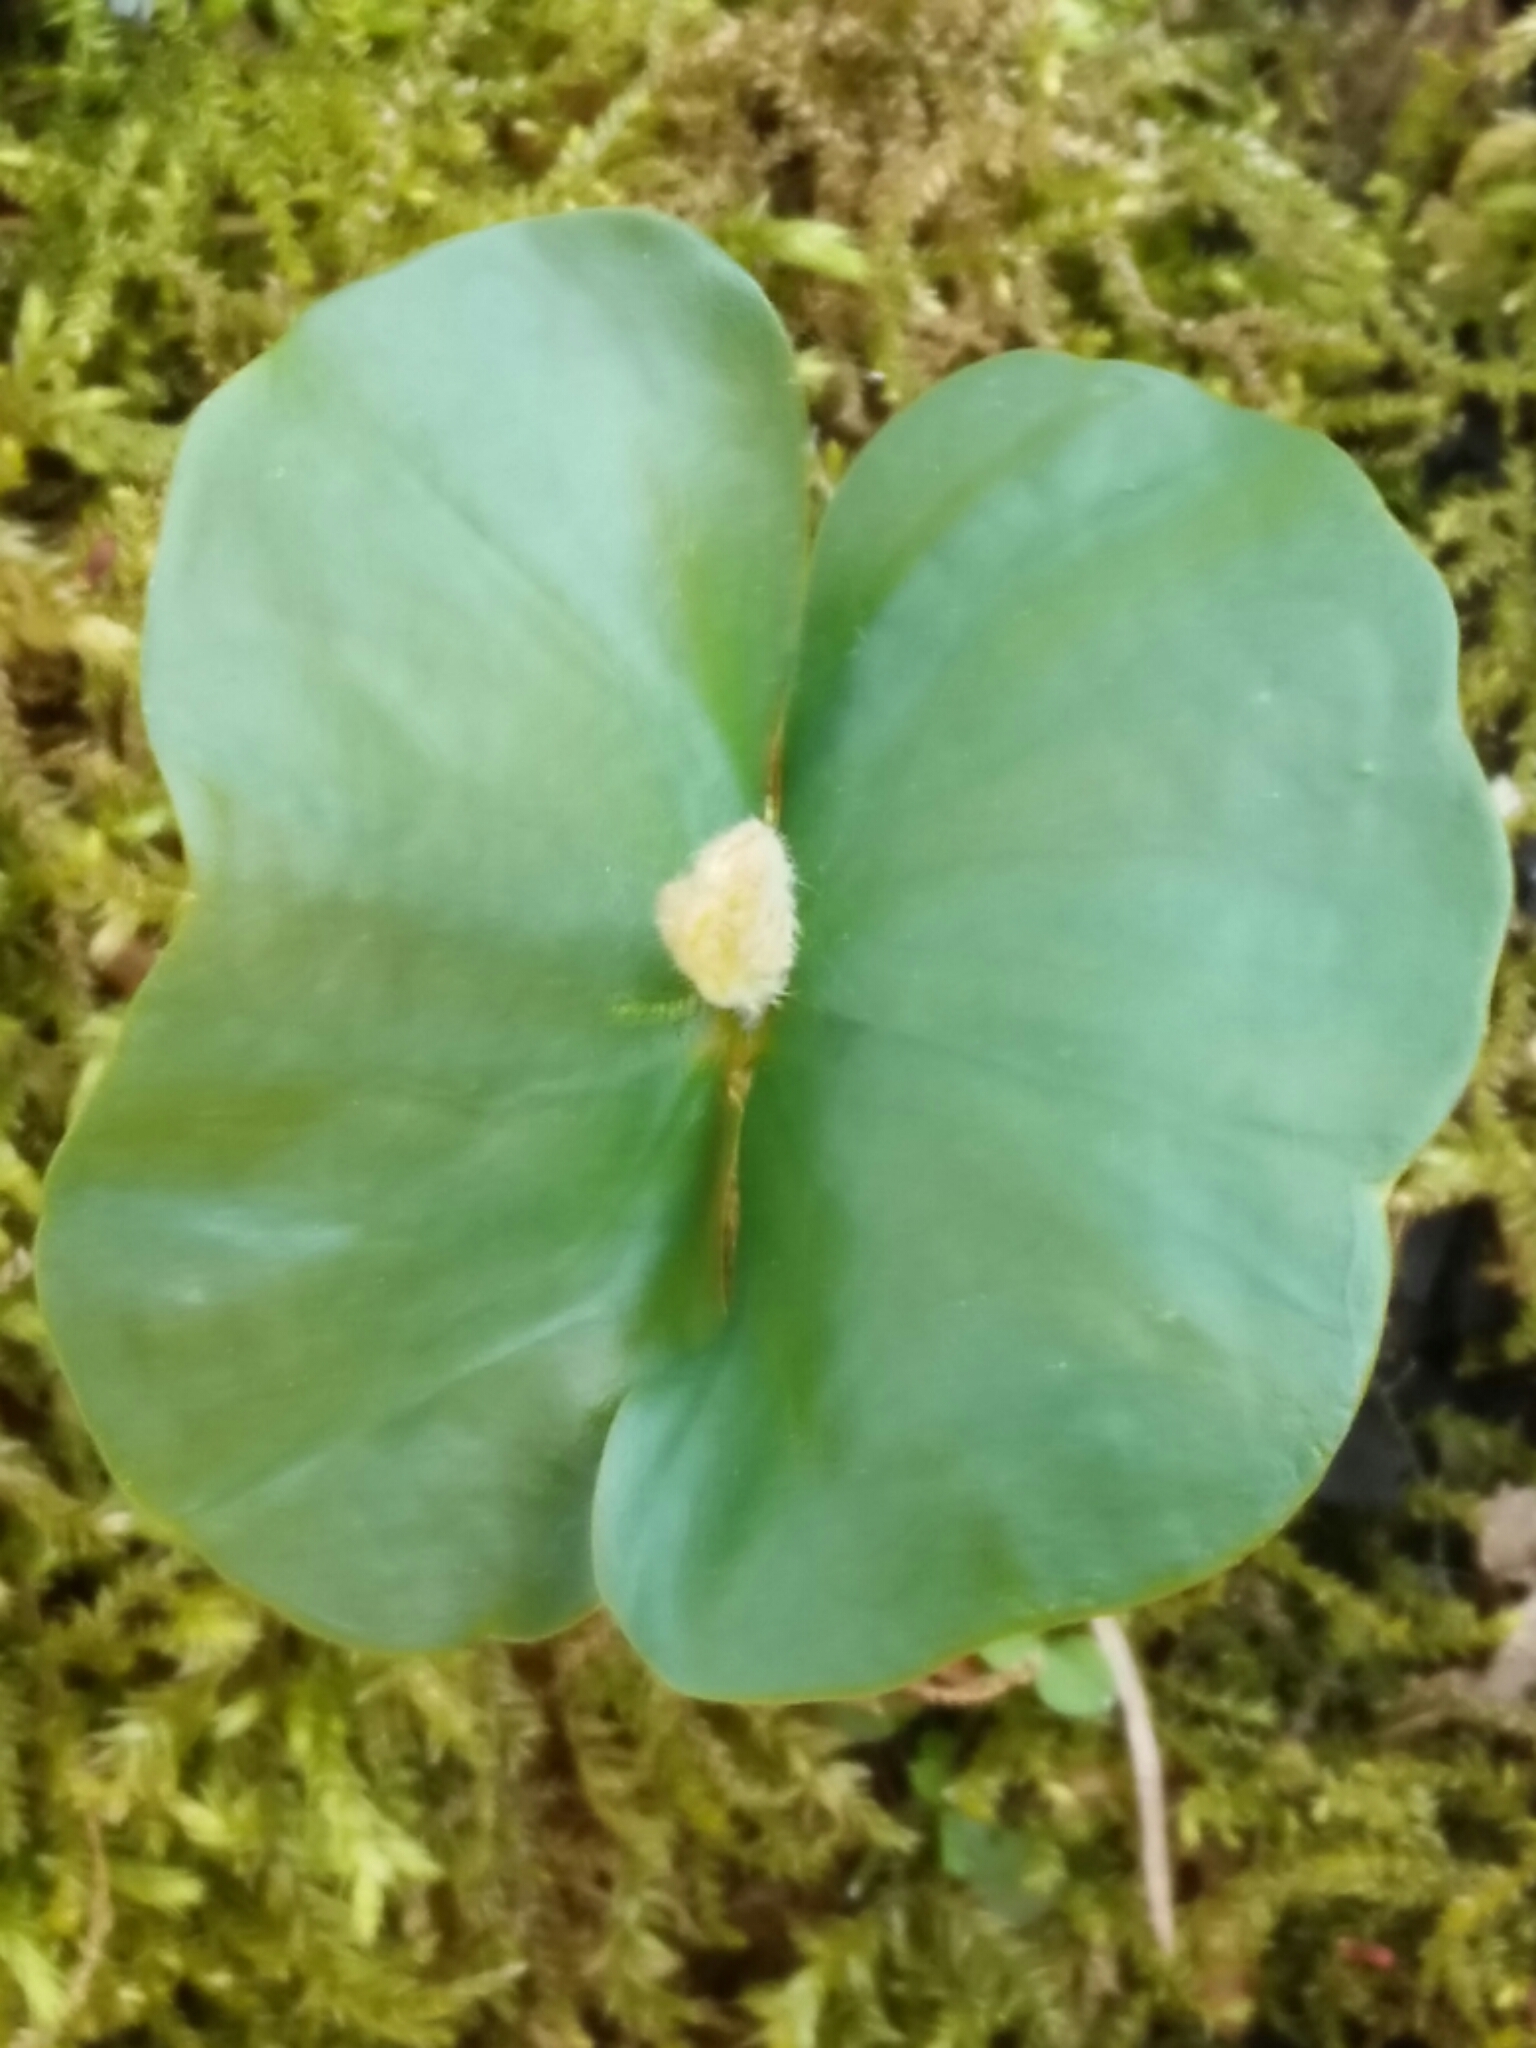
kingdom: Plantae
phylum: Tracheophyta
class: Magnoliopsida
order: Fagales
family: Fagaceae
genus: Fagus
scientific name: Fagus sylvatica
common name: Beech
